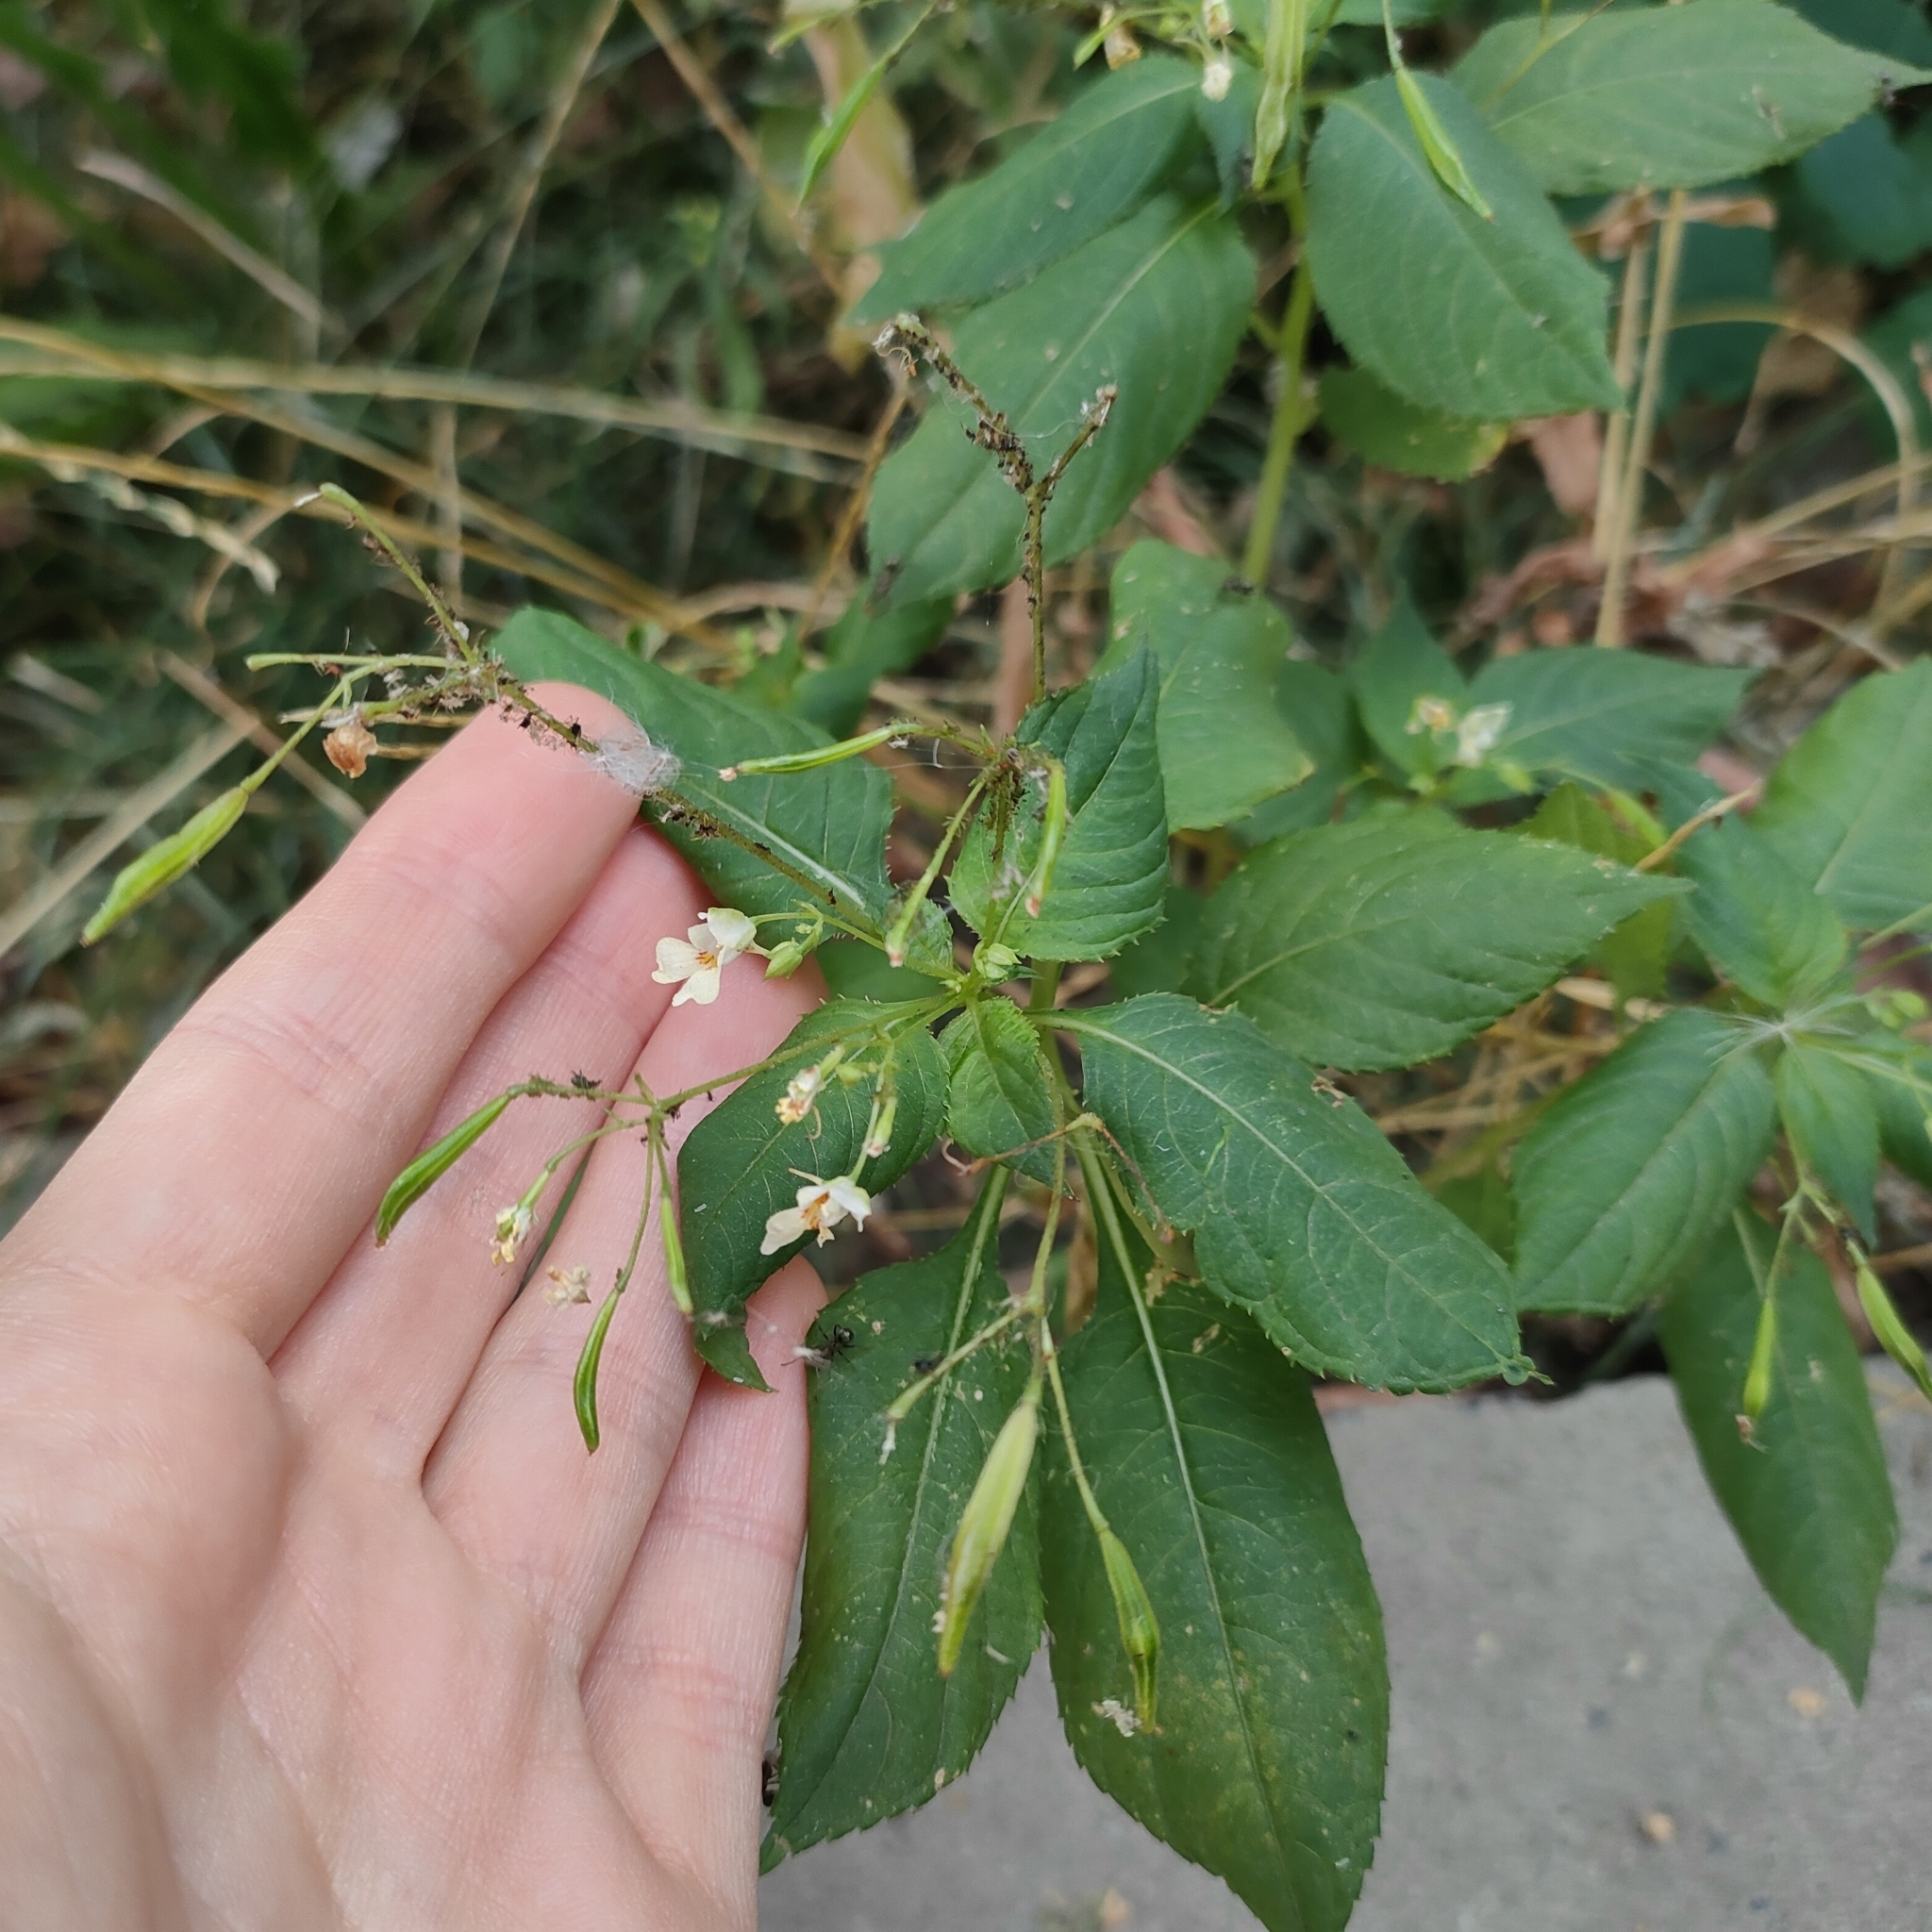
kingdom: Plantae
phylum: Tracheophyta
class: Magnoliopsida
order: Ericales
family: Balsaminaceae
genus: Impatiens
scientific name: Impatiens parviflora
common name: Small balsam
